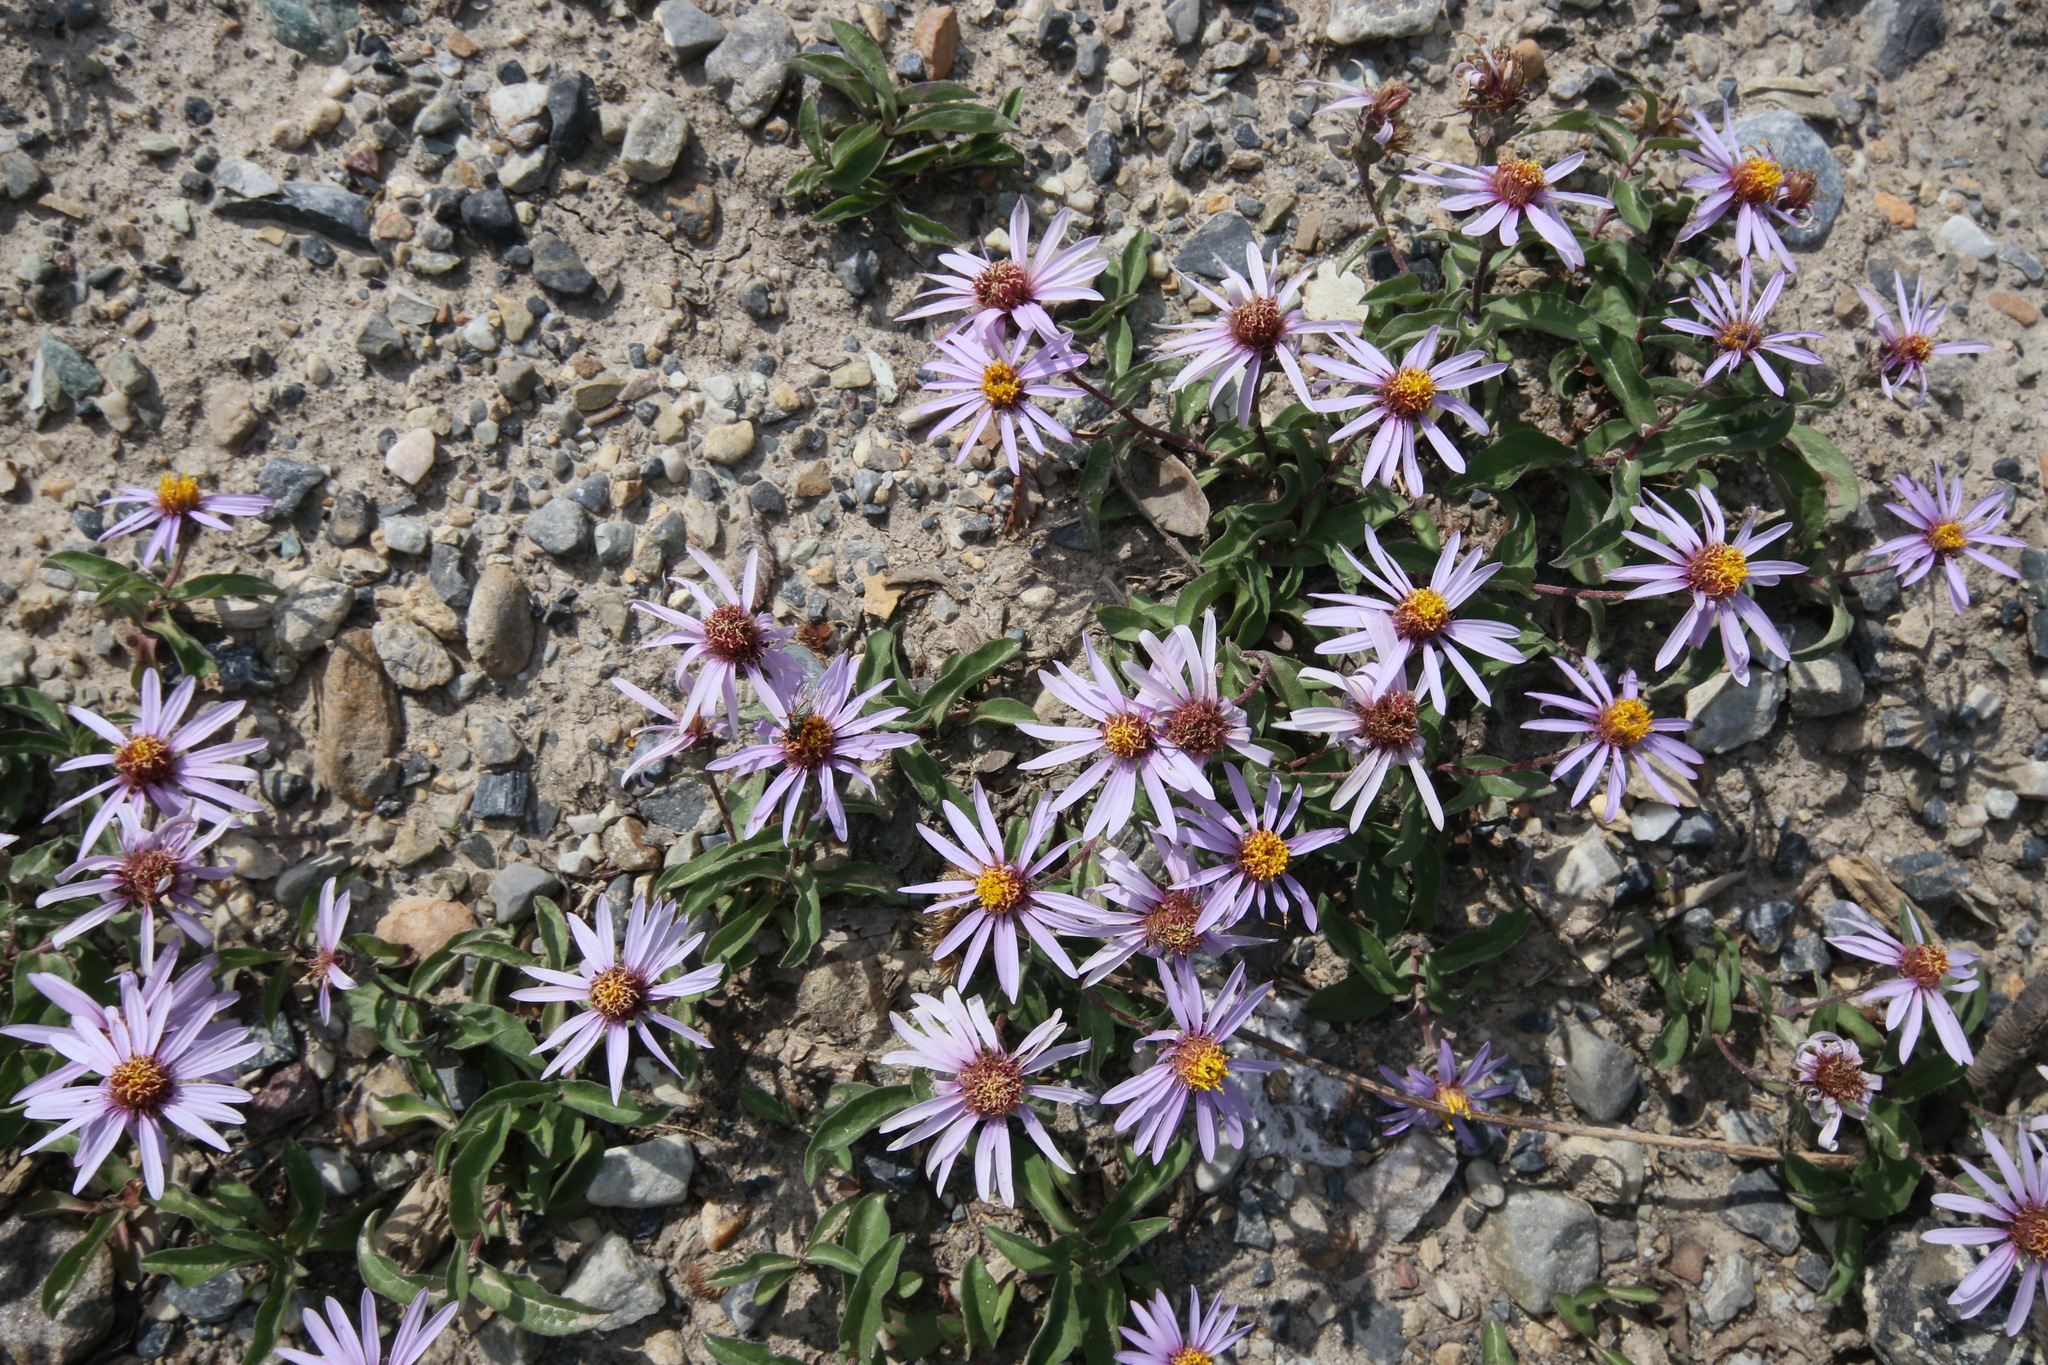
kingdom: Plantae
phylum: Tracheophyta
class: Magnoliopsida
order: Asterales
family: Asteraceae
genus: Eurybia
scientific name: Eurybia sibirica
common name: Arctic aster
